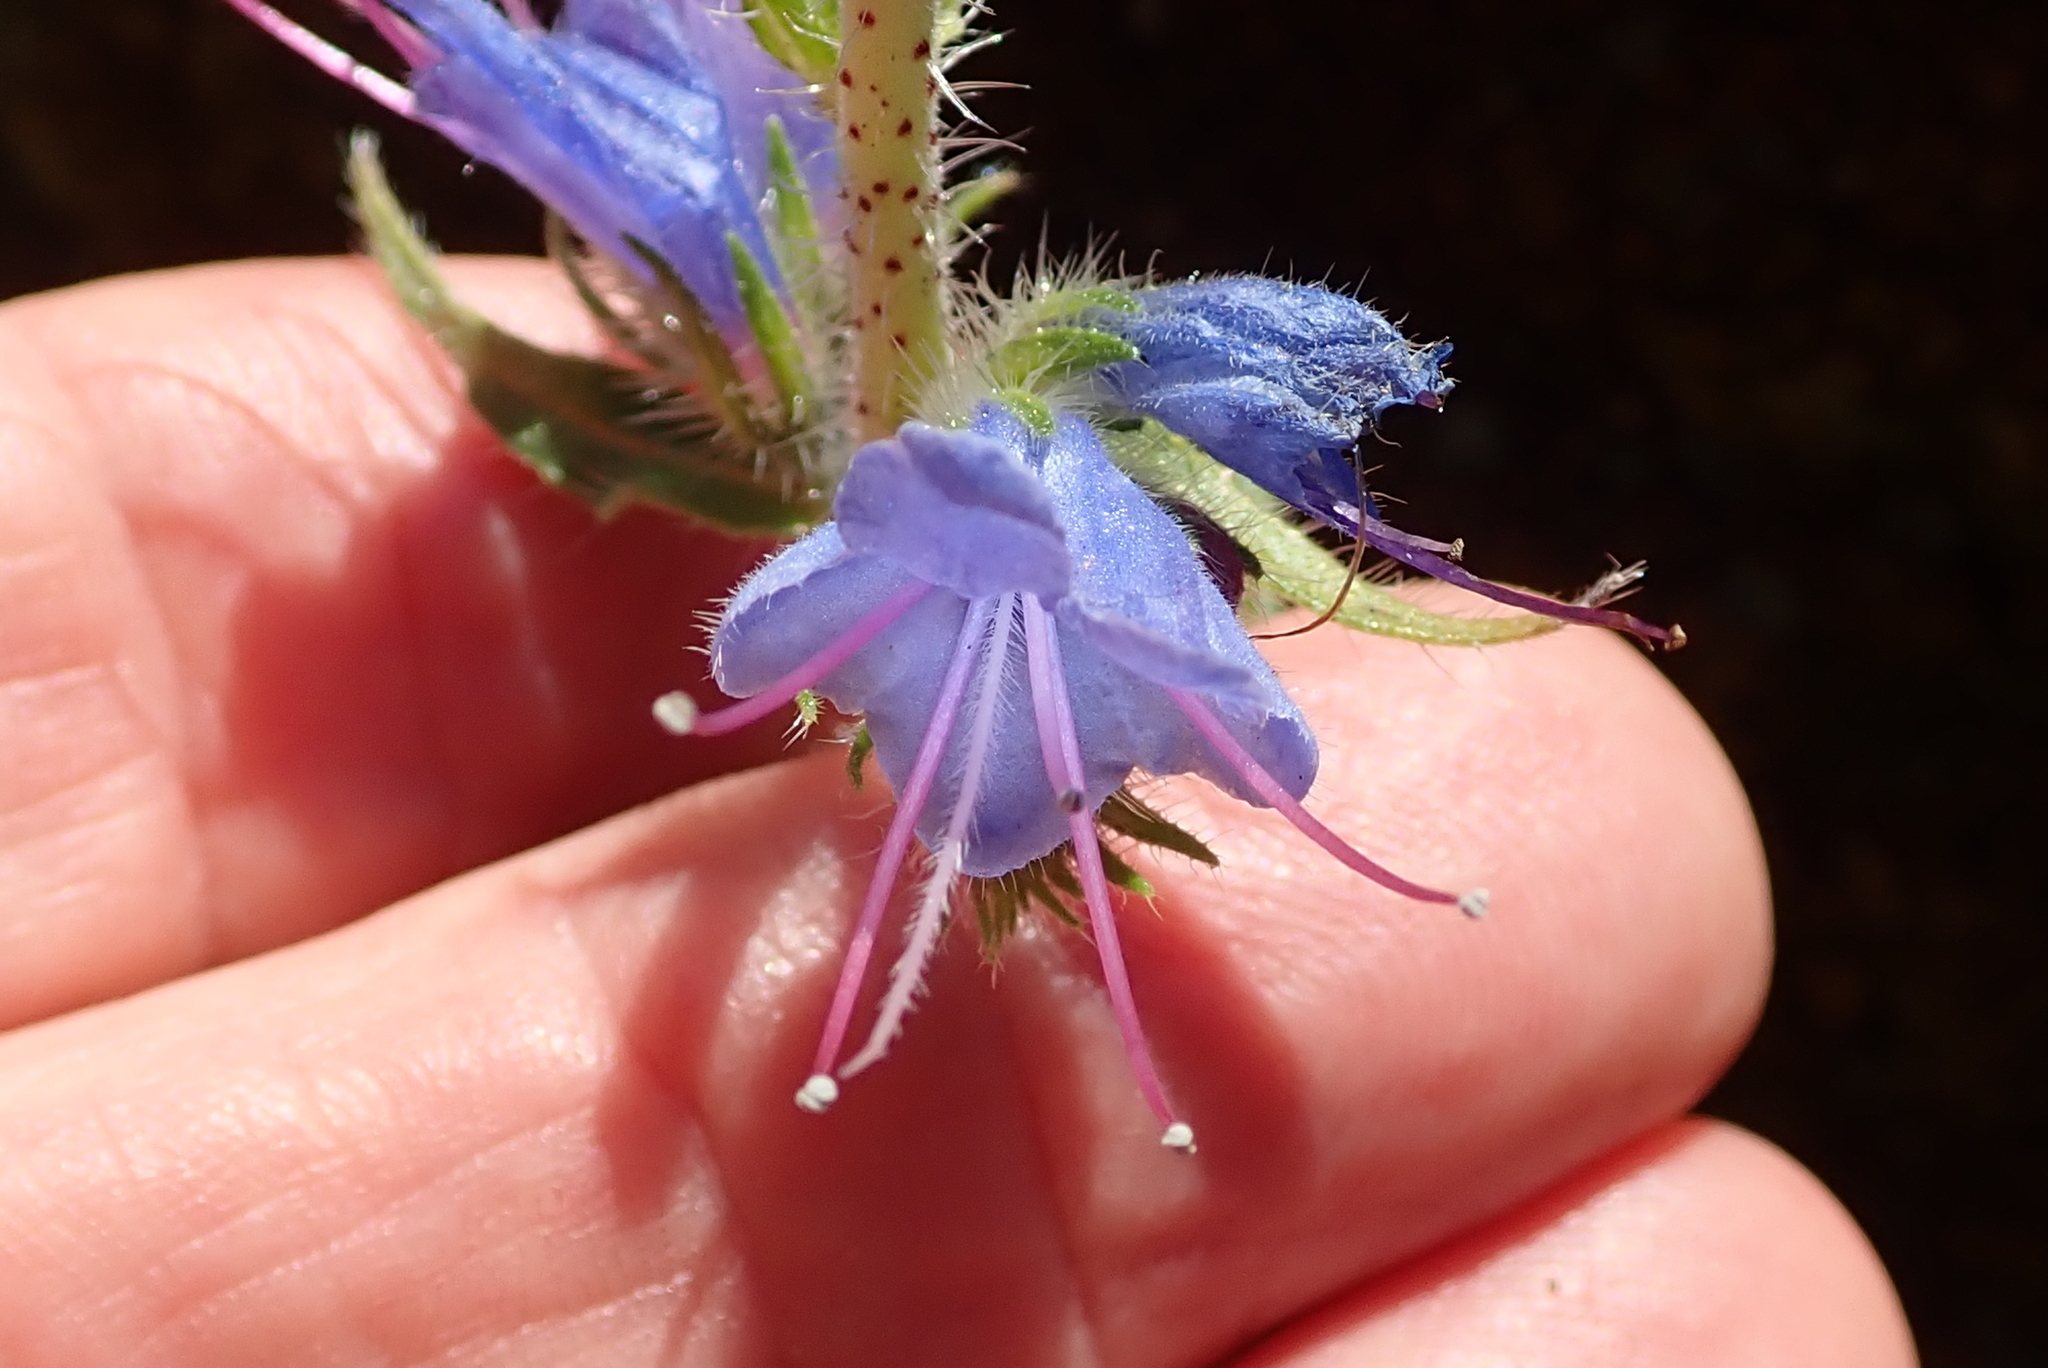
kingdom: Plantae
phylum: Tracheophyta
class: Magnoliopsida
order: Boraginales
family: Boraginaceae
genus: Echium
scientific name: Echium vulgare
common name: Common viper's bugloss
